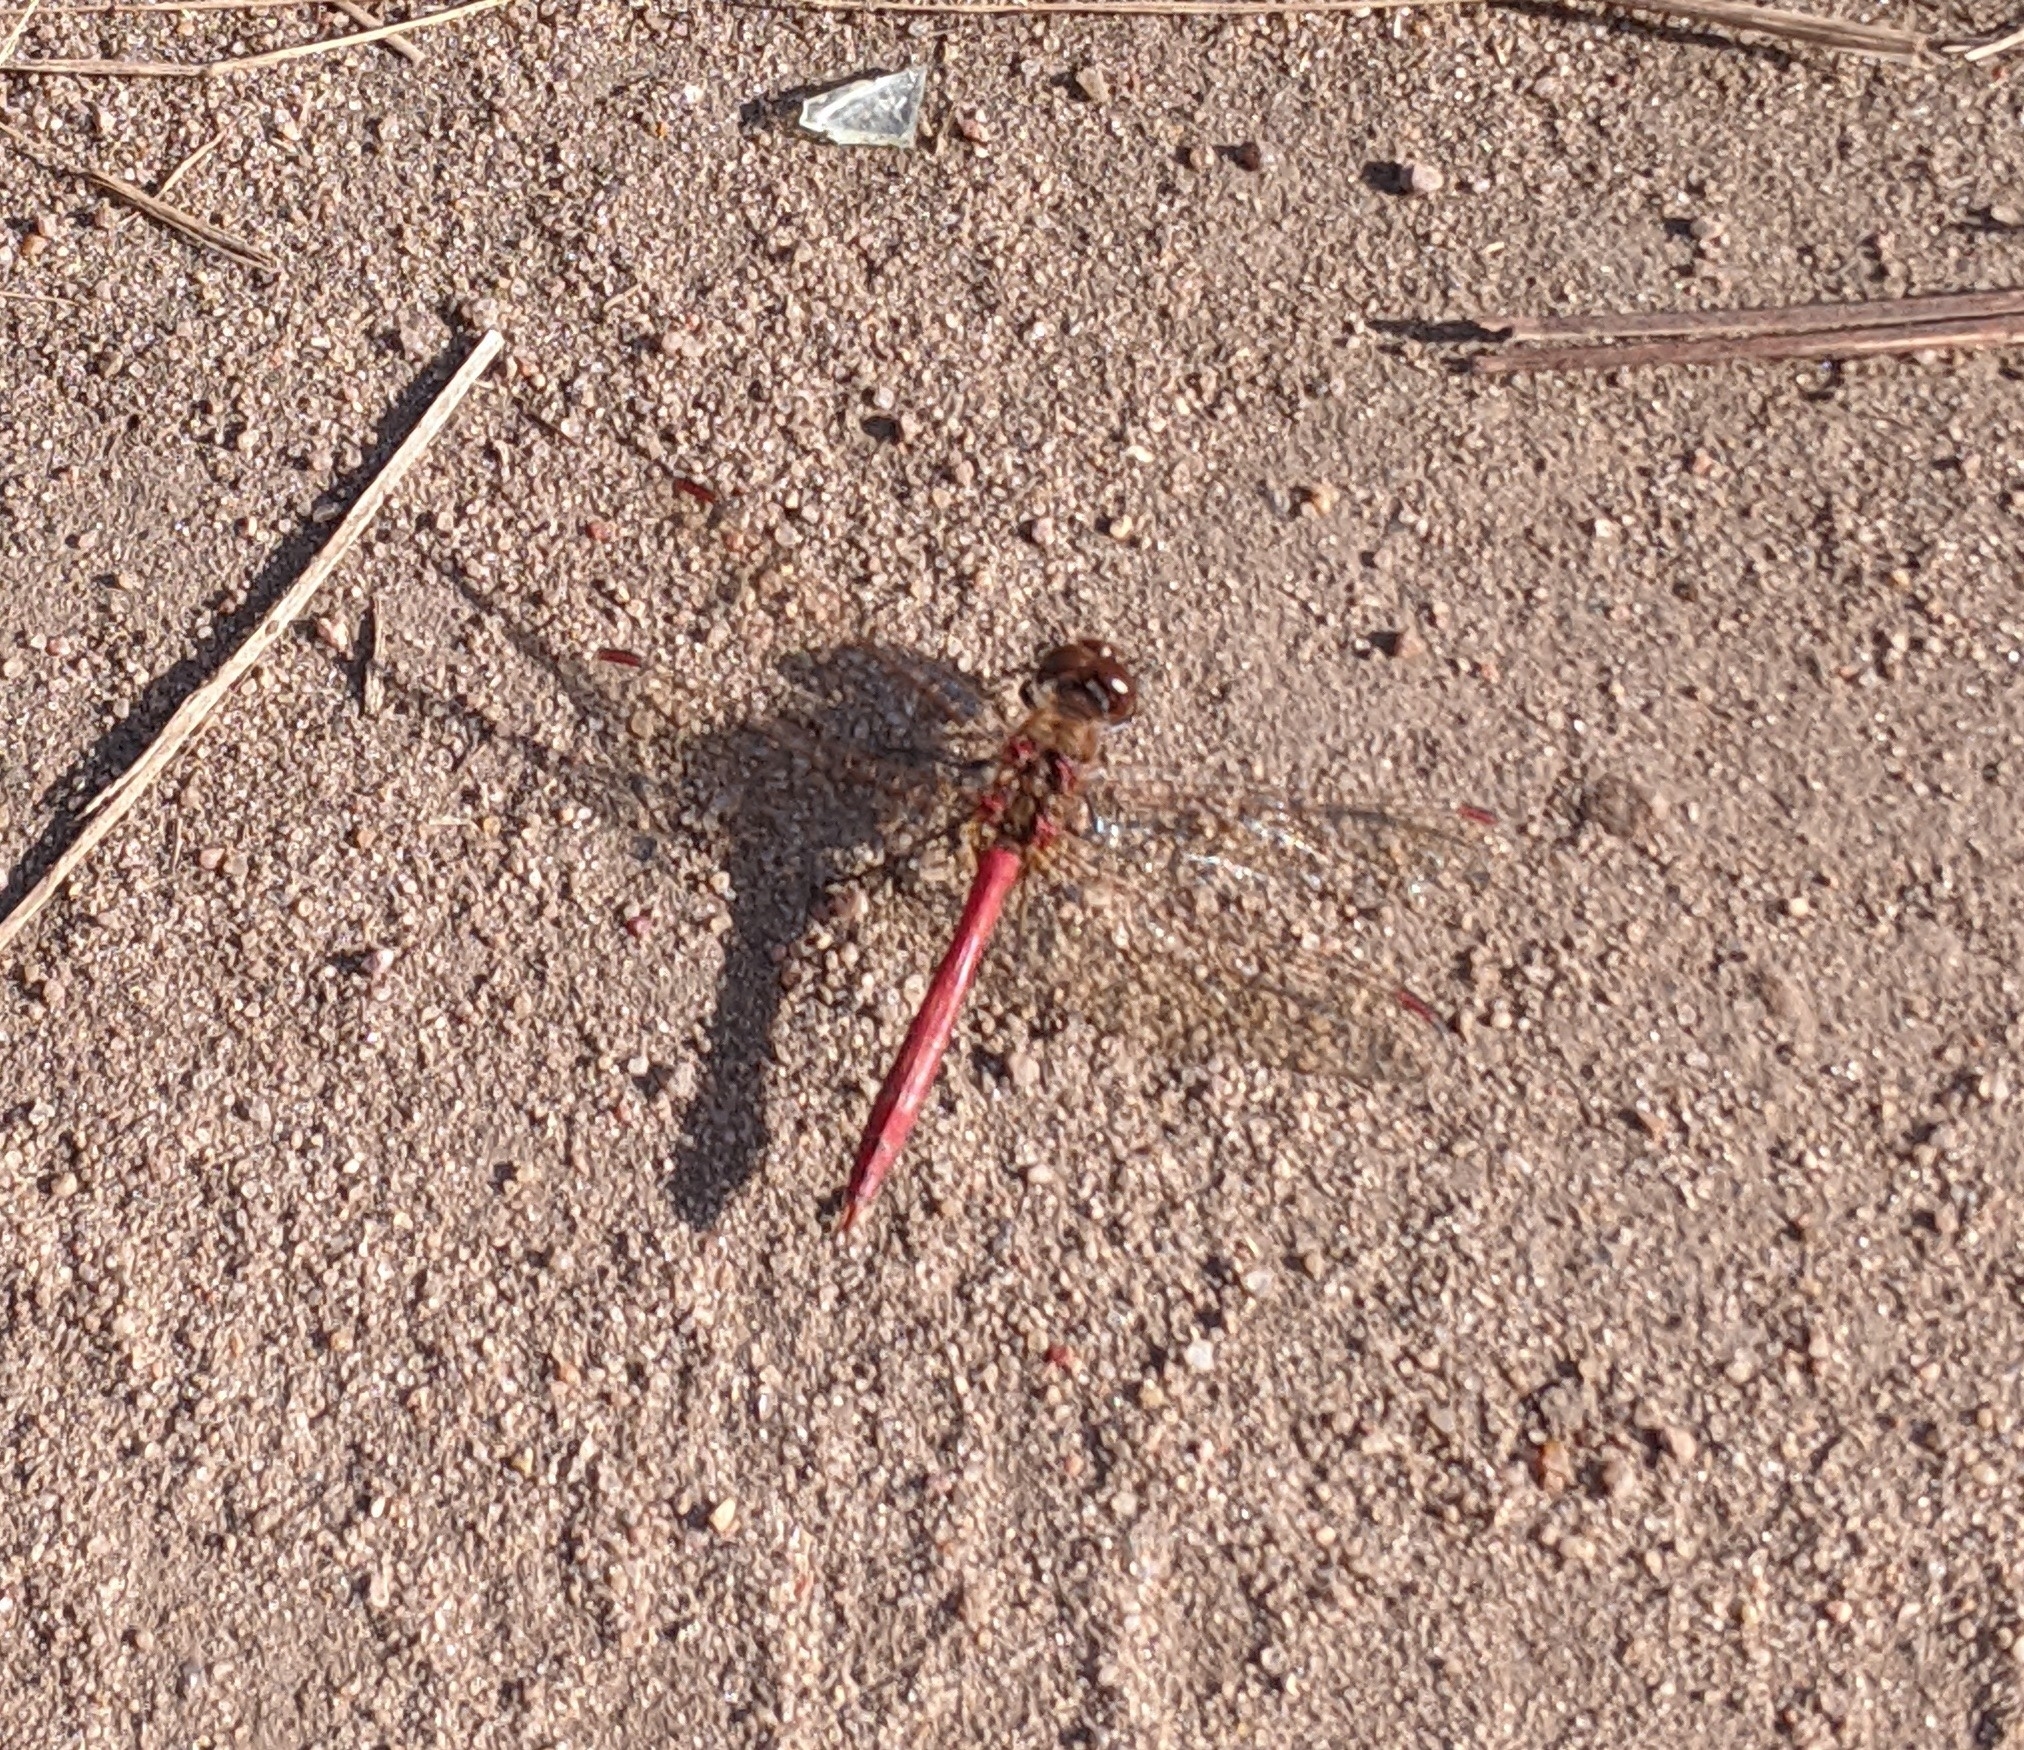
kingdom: Animalia
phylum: Arthropoda
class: Insecta
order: Odonata
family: Libellulidae
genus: Sympetrum
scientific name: Sympetrum vulgatum
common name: Vagrant darter
